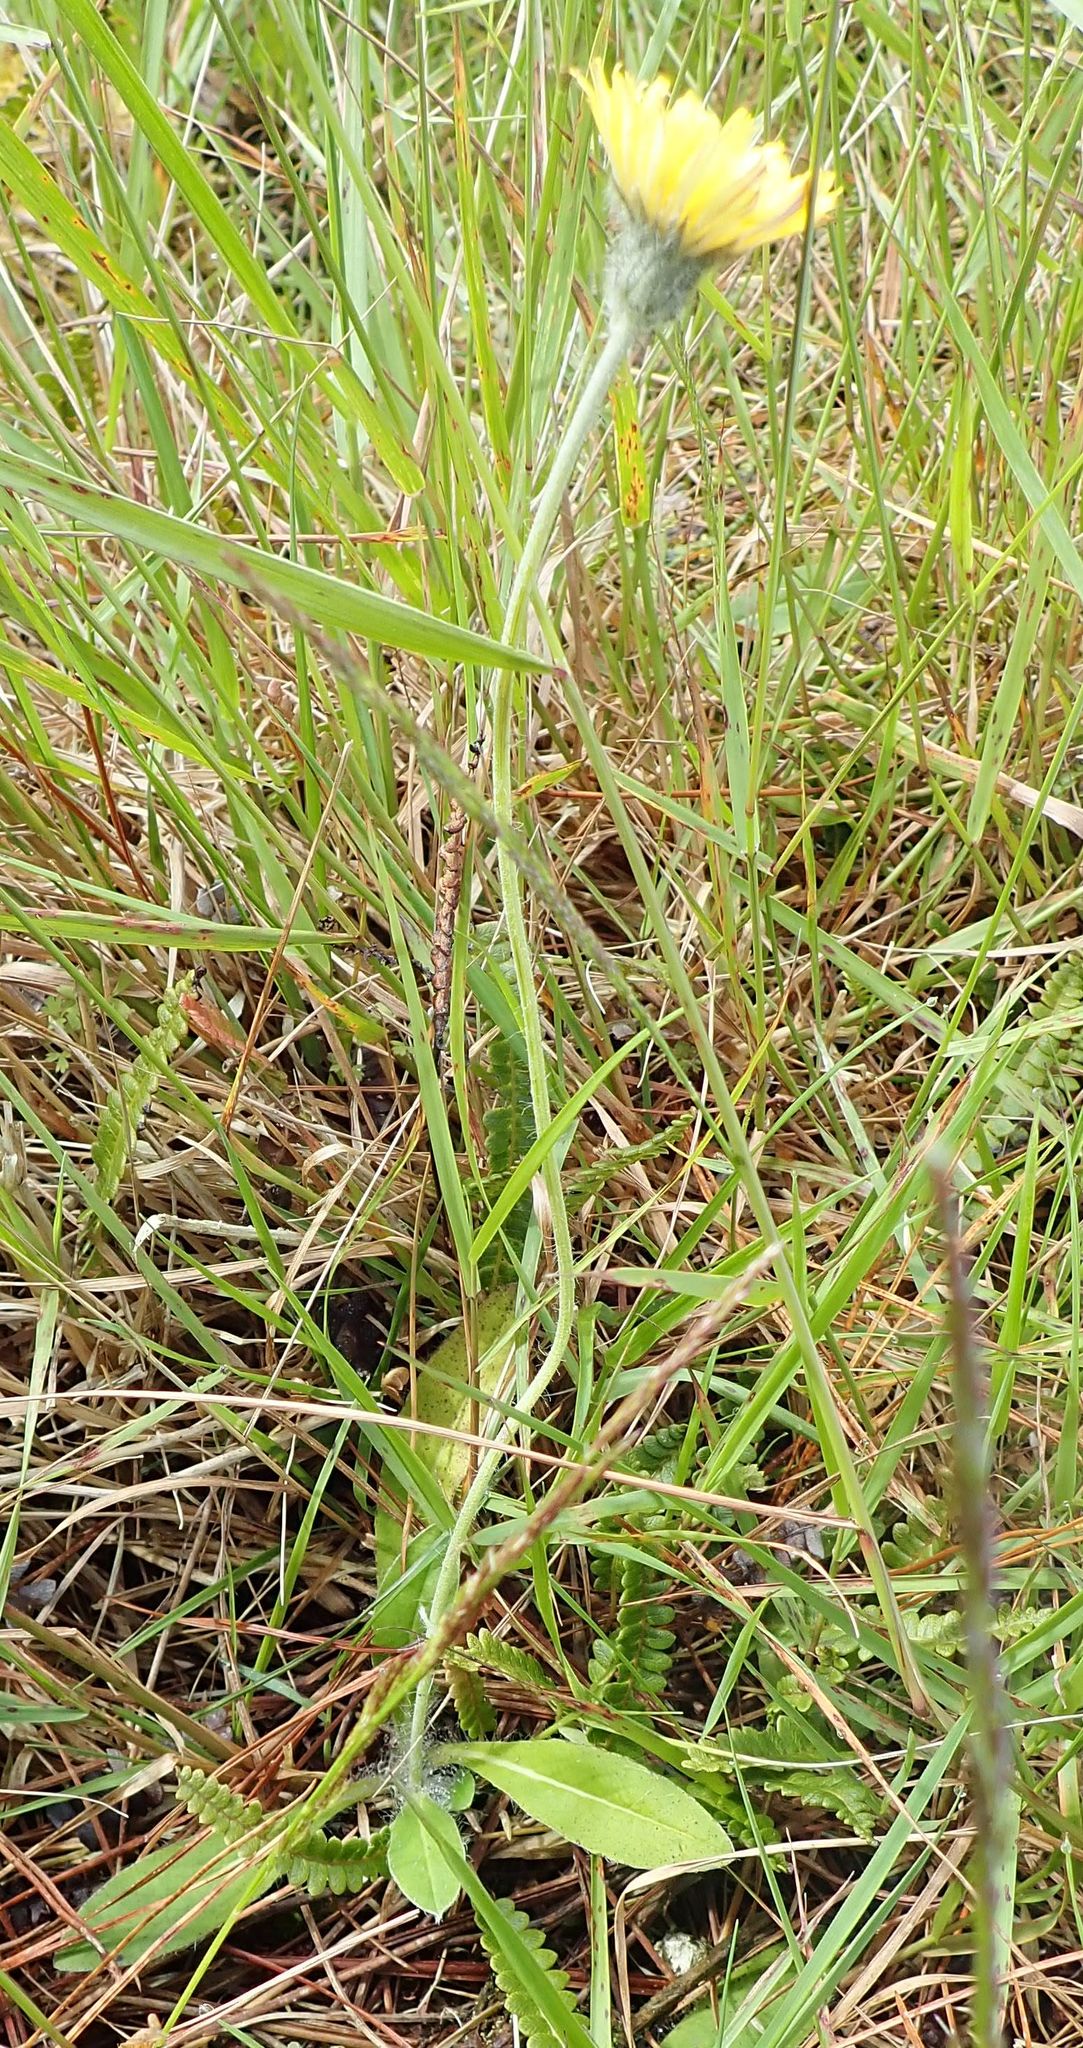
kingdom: Plantae
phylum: Tracheophyta
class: Magnoliopsida
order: Asterales
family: Asteraceae
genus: Pilosella
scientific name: Pilosella officinarum
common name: Mouse-ear hawkweed
